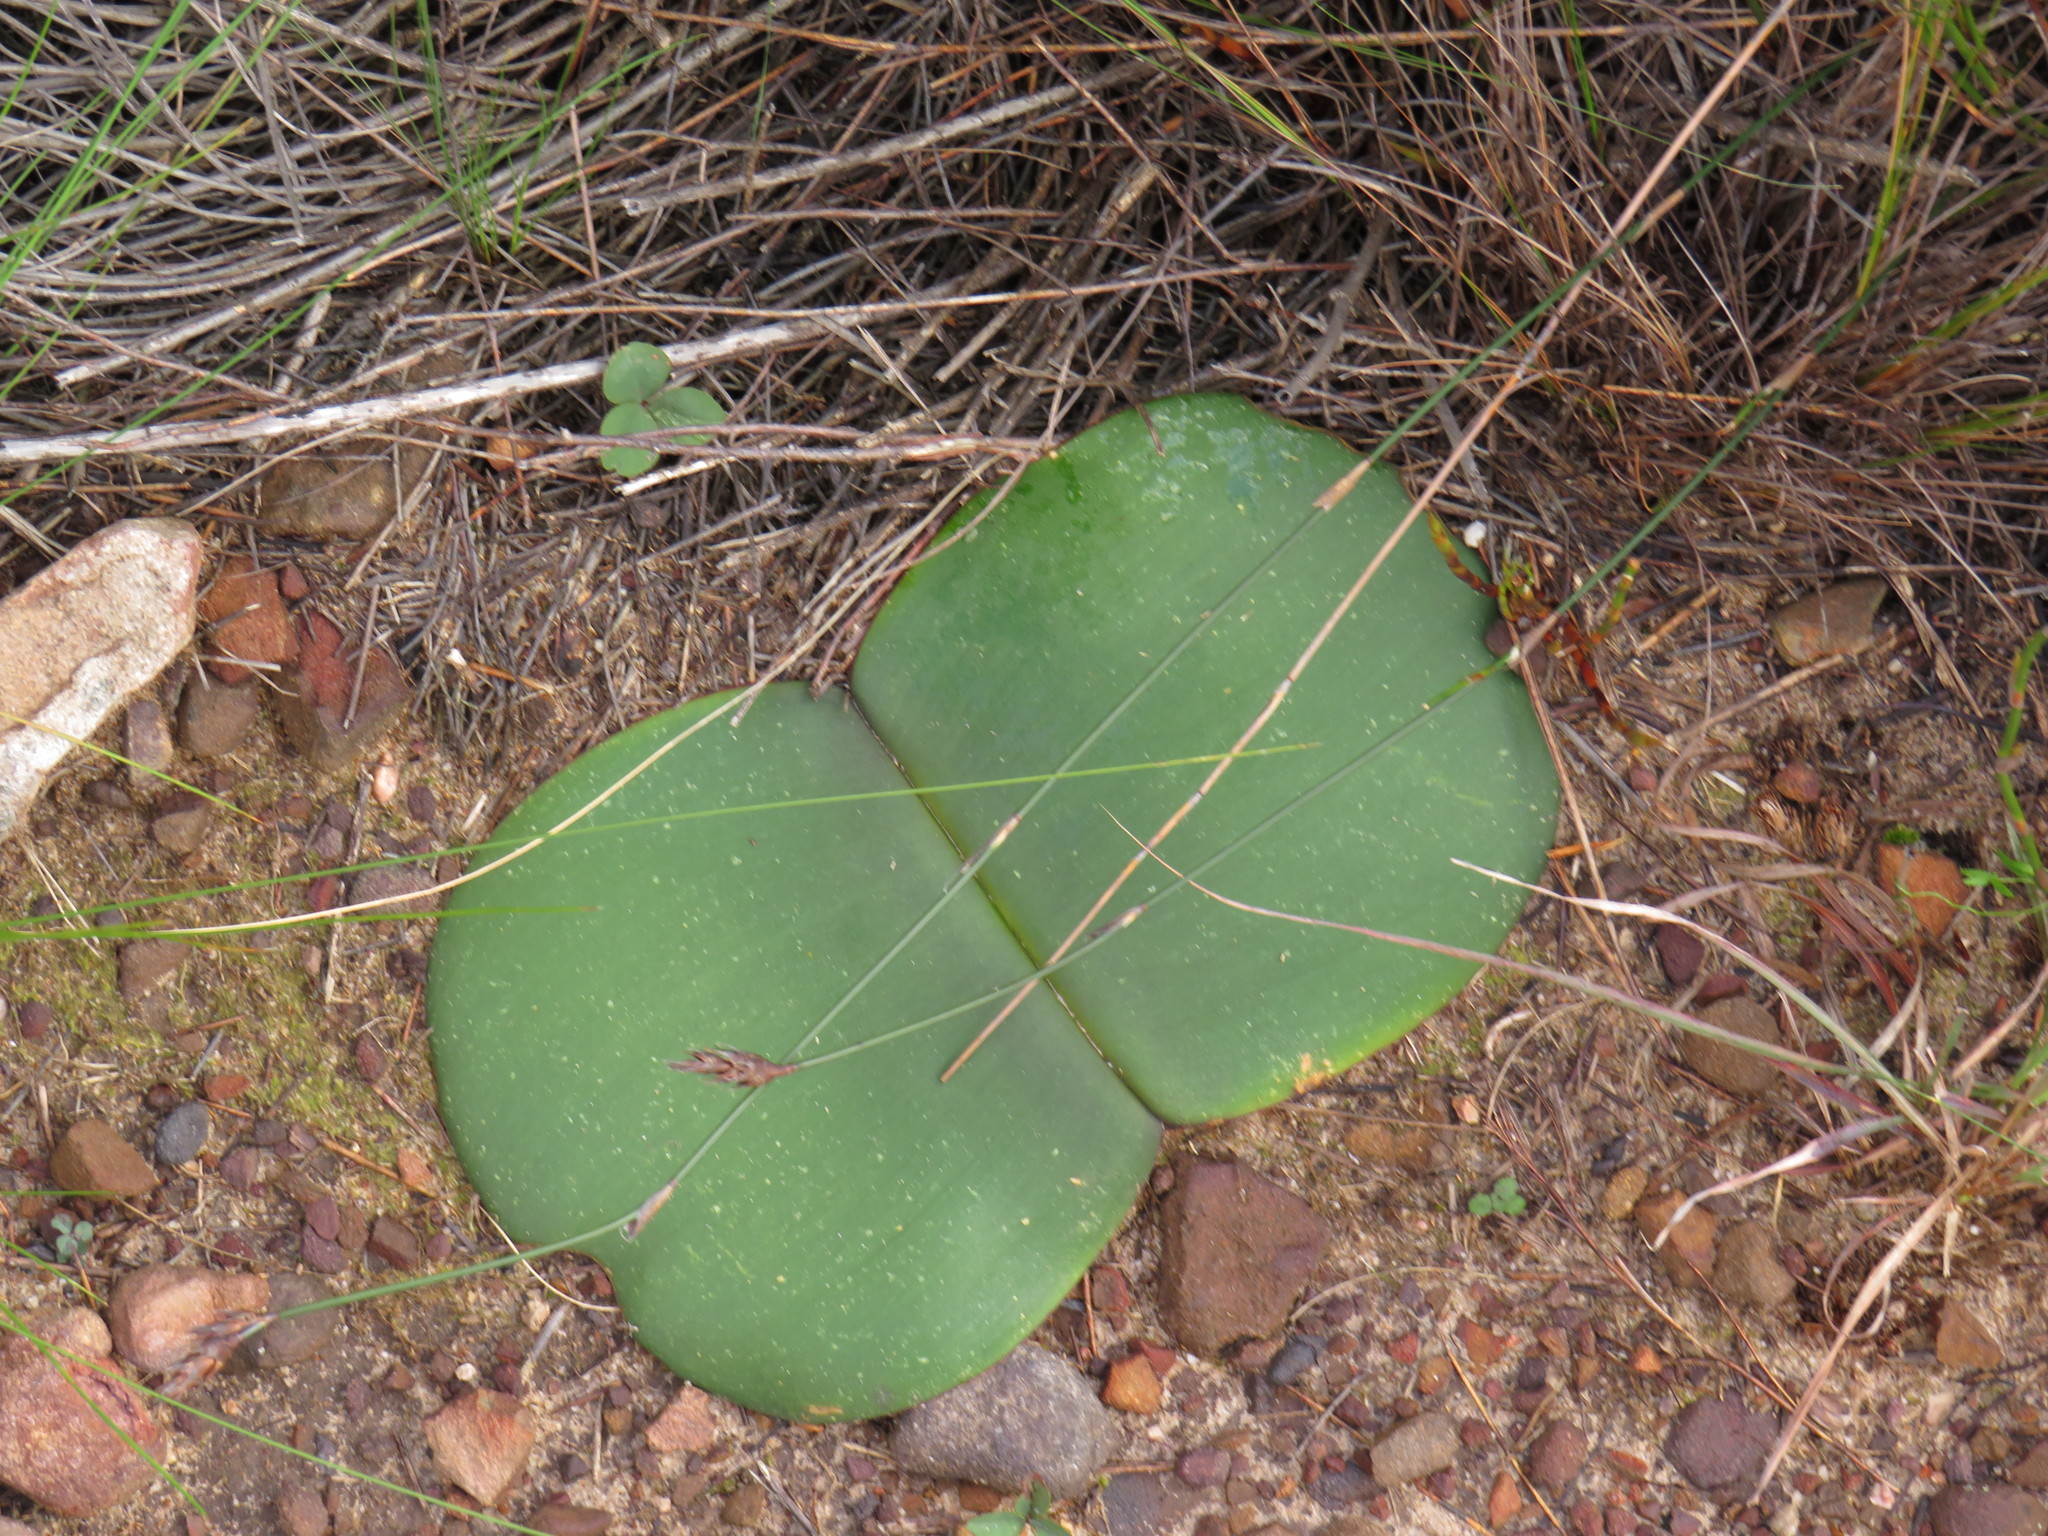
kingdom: Plantae
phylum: Tracheophyta
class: Liliopsida
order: Asparagales
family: Amaryllidaceae
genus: Haemanthus
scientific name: Haemanthus sanguineus
